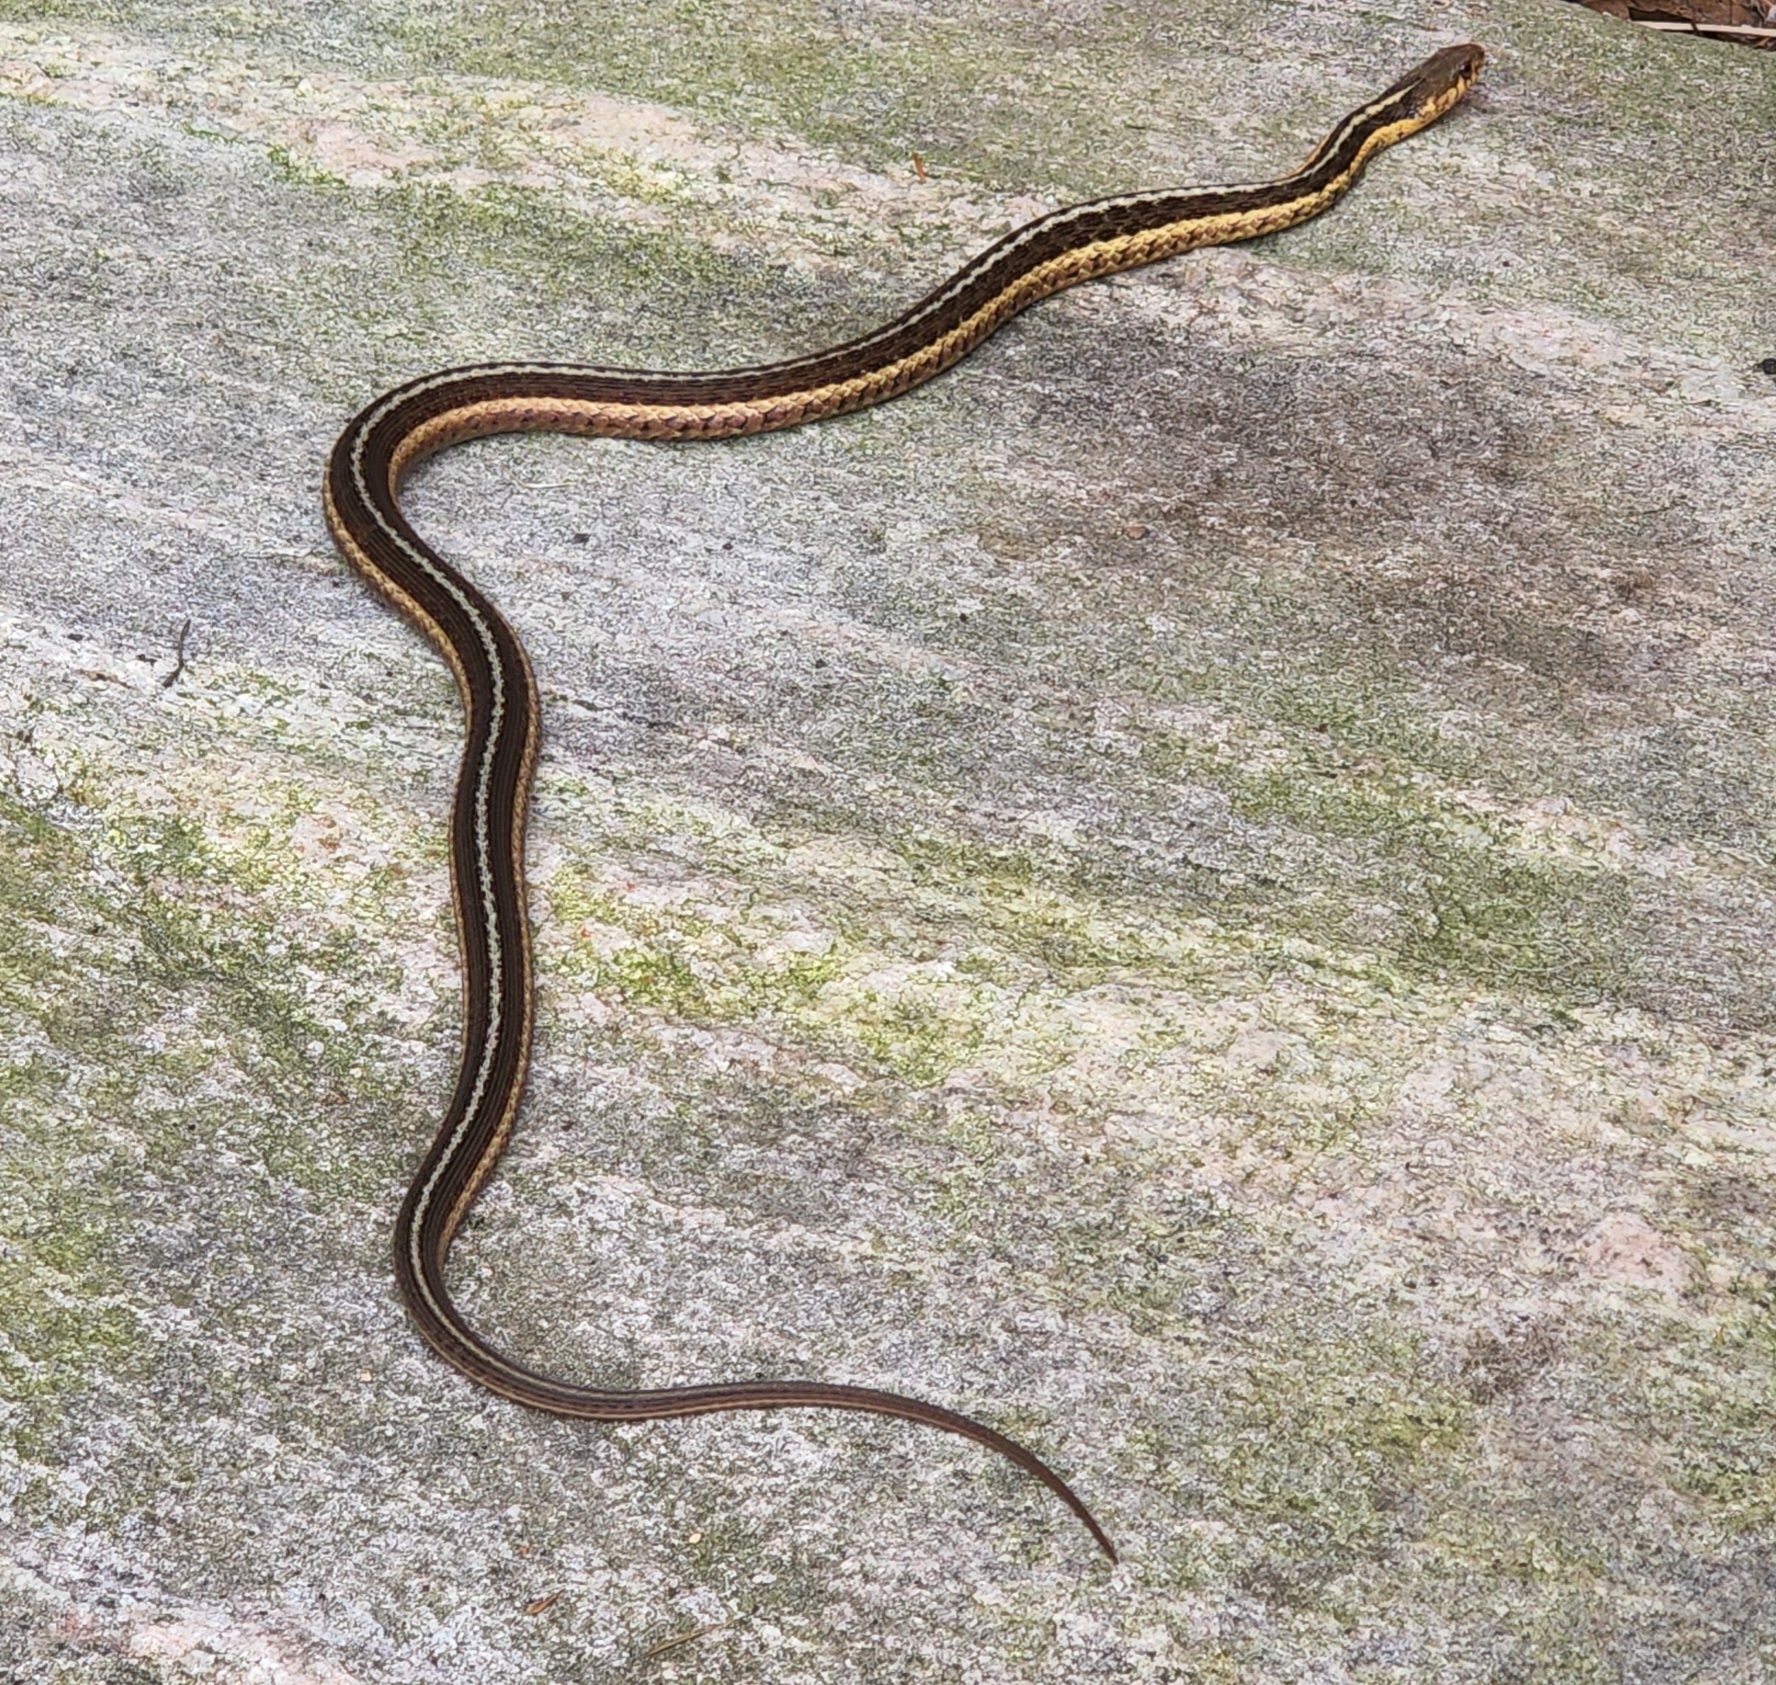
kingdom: Animalia
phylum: Chordata
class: Squamata
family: Colubridae
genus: Thamnophis
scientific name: Thamnophis sirtalis
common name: Common garter snake
